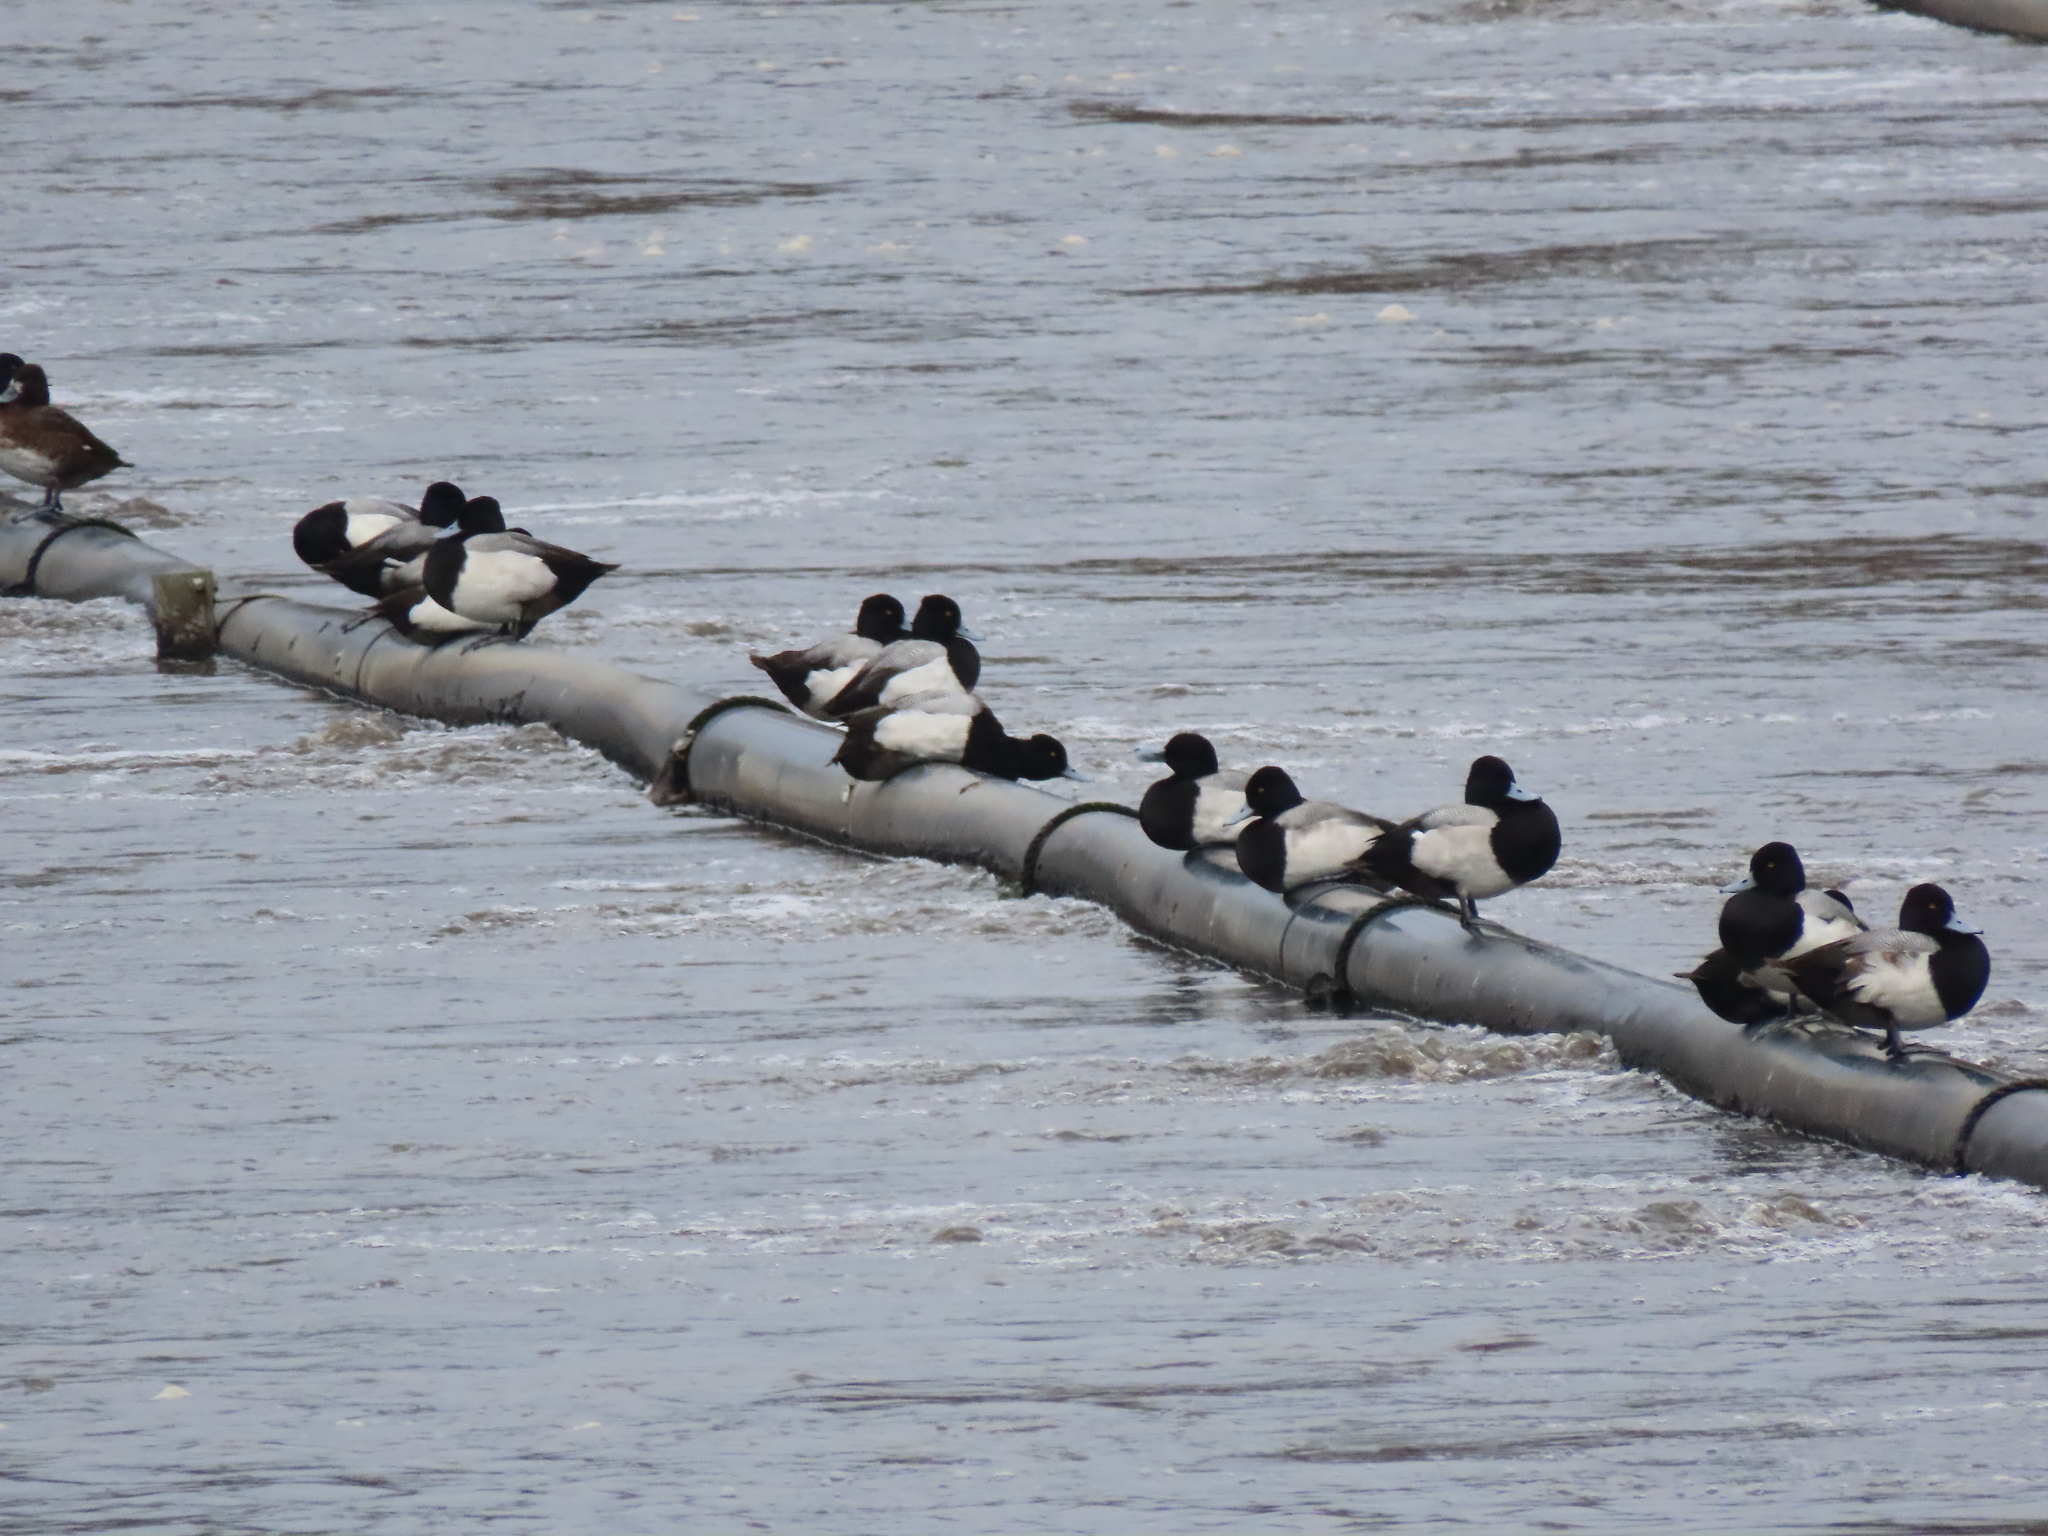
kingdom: Animalia
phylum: Chordata
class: Aves
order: Anseriformes
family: Anatidae
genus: Aythya
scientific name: Aythya affinis
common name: Lesser scaup
